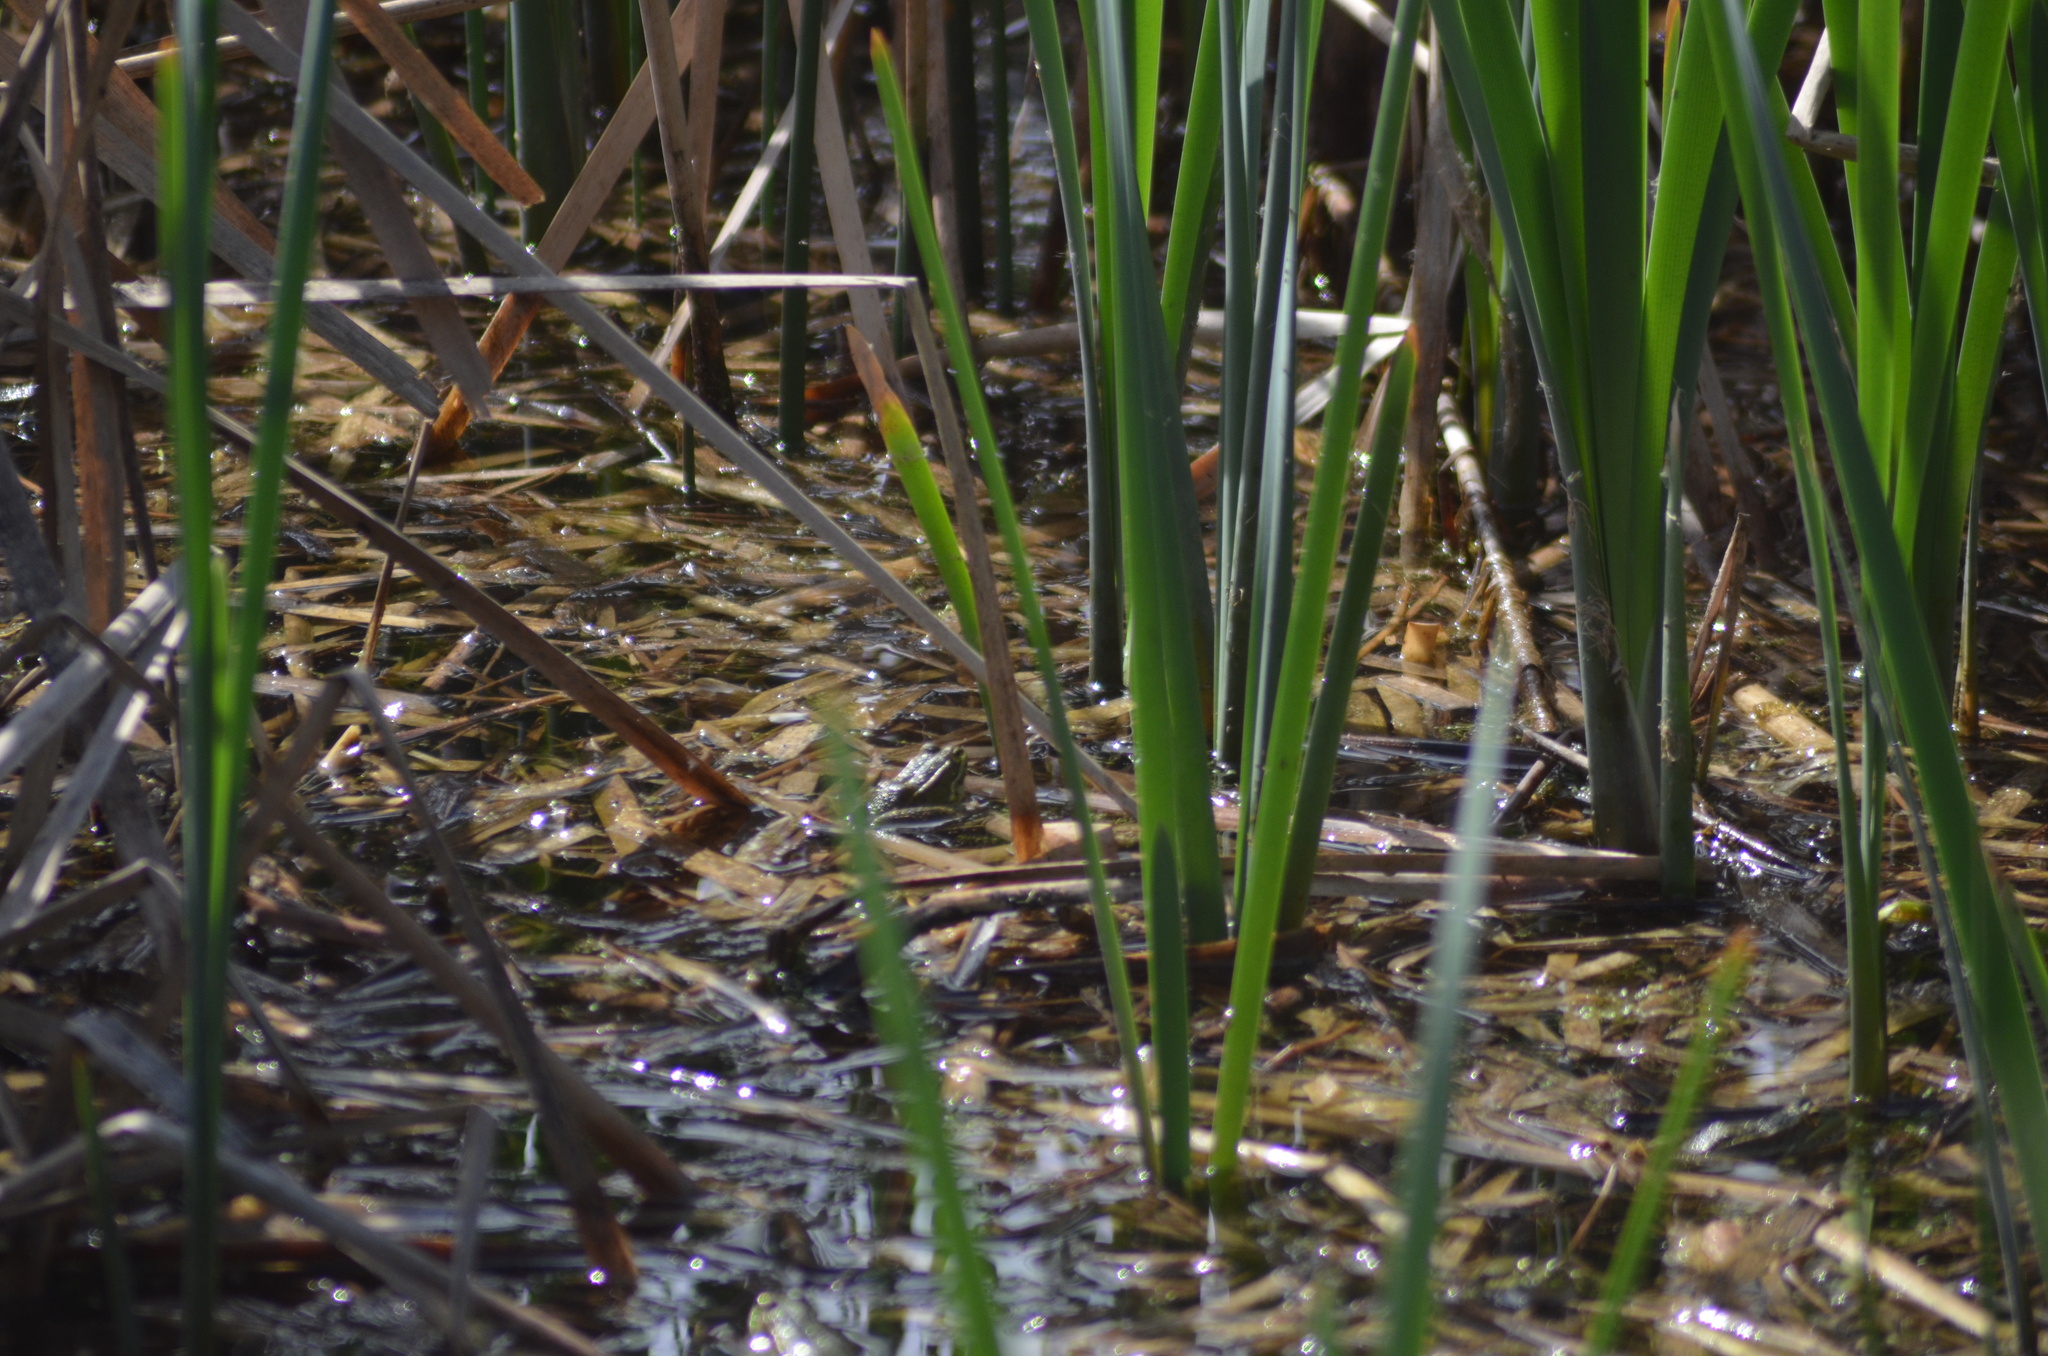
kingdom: Animalia
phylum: Chordata
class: Amphibia
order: Anura
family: Ranidae
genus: Pelophylax
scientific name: Pelophylax
